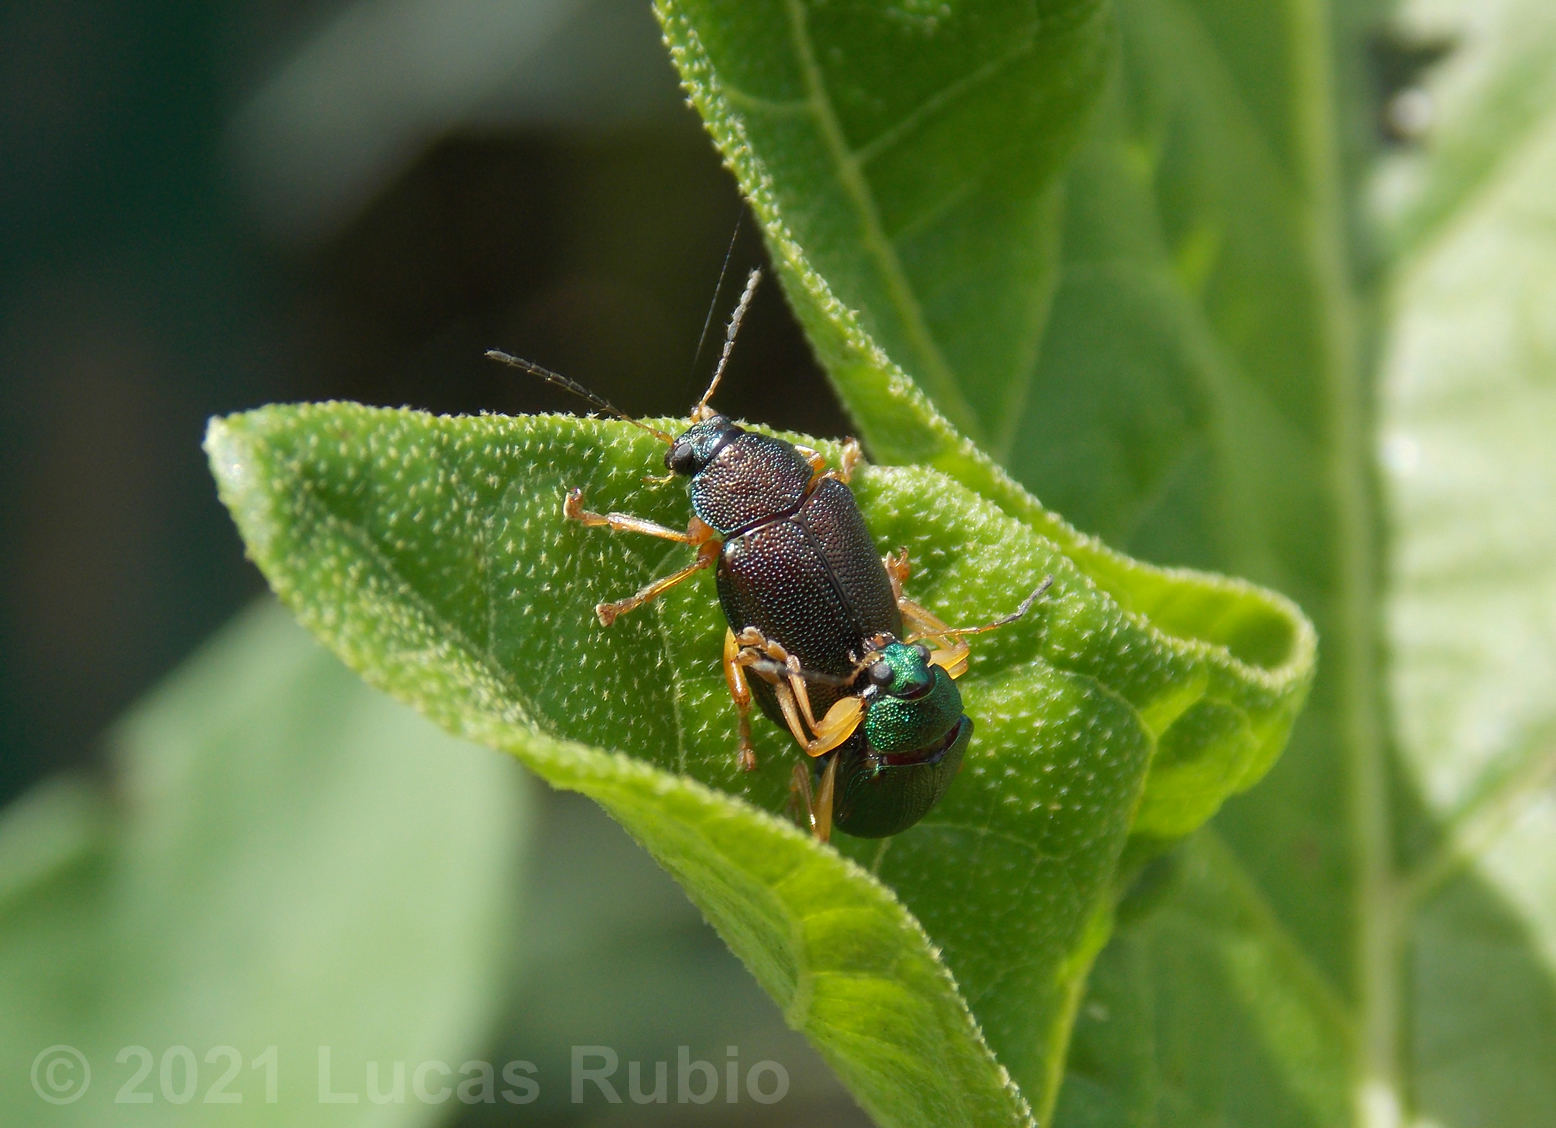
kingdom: Animalia
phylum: Arthropoda
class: Insecta
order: Coleoptera
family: Chrysomelidae
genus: Colaspis
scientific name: Colaspis
